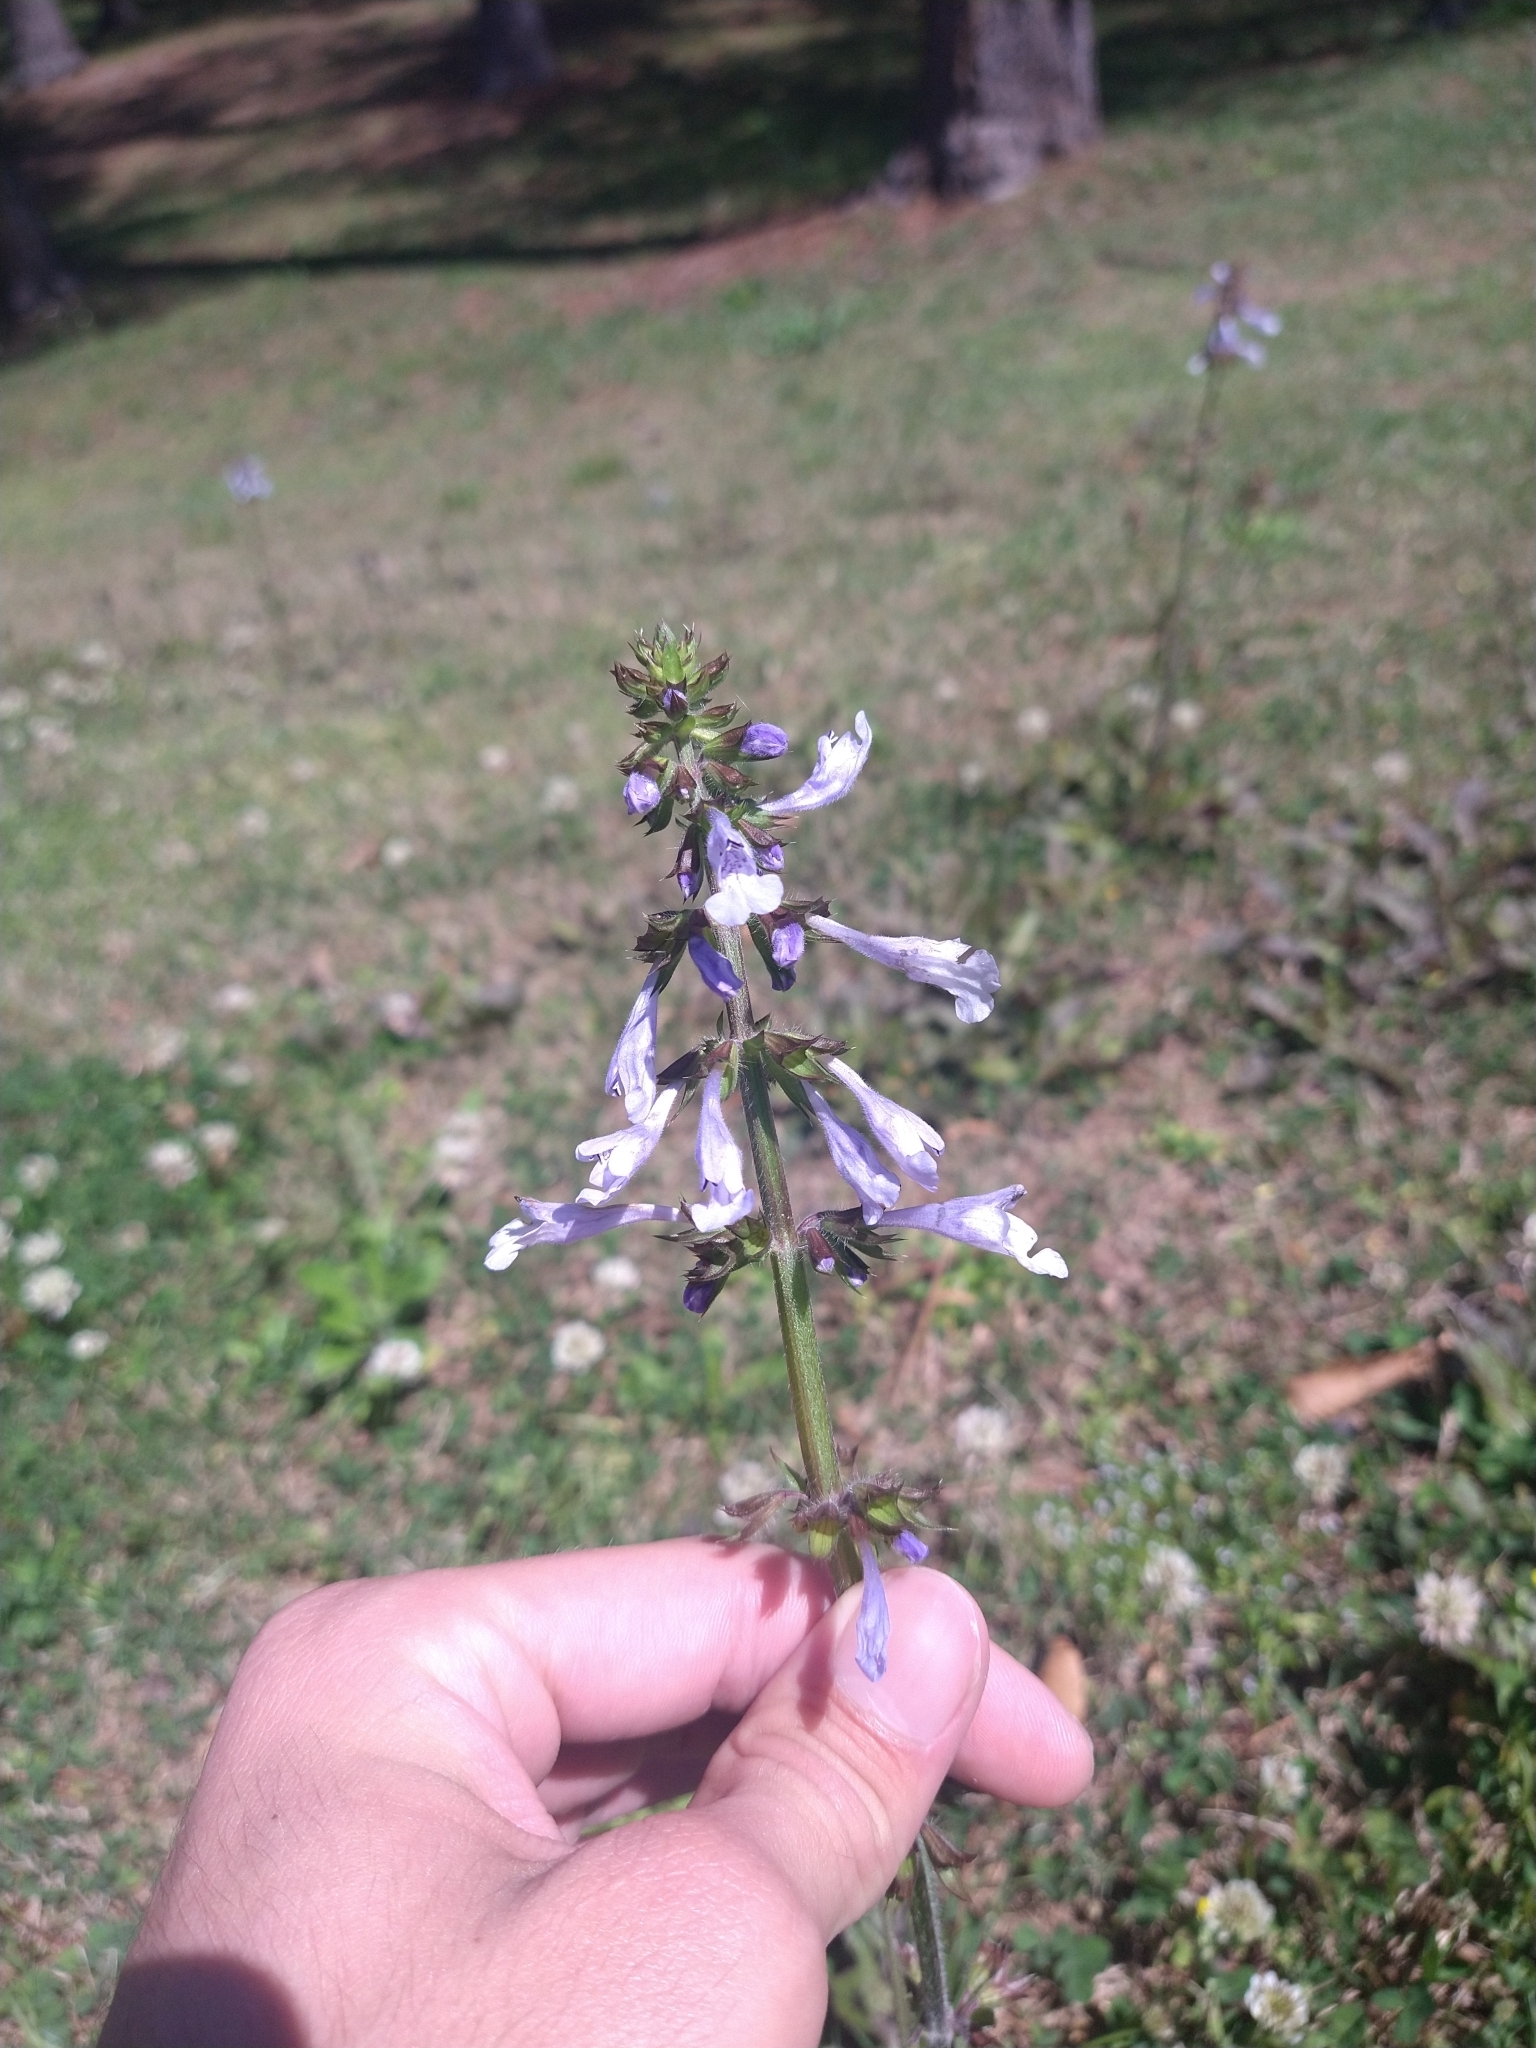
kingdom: Plantae
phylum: Tracheophyta
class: Magnoliopsida
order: Lamiales
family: Lamiaceae
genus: Salvia
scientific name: Salvia lyrata
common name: Cancerweed
